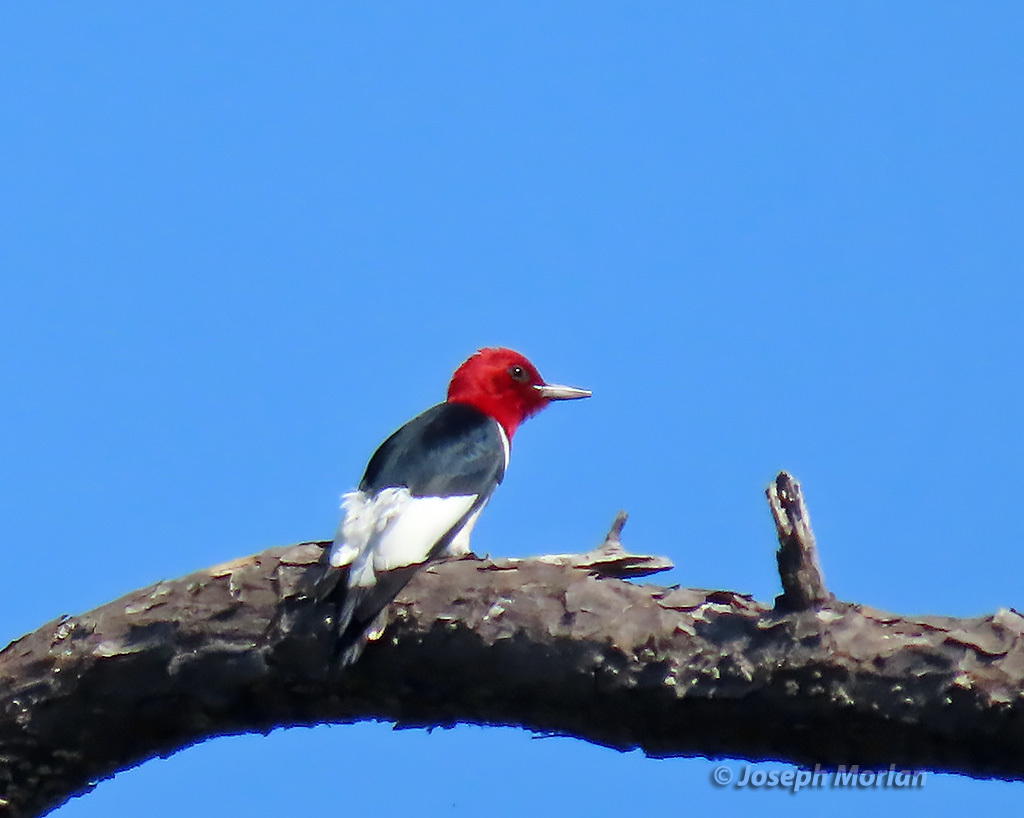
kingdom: Animalia
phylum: Chordata
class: Aves
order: Piciformes
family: Picidae
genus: Melanerpes
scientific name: Melanerpes erythrocephalus
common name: Red-headed woodpecker
